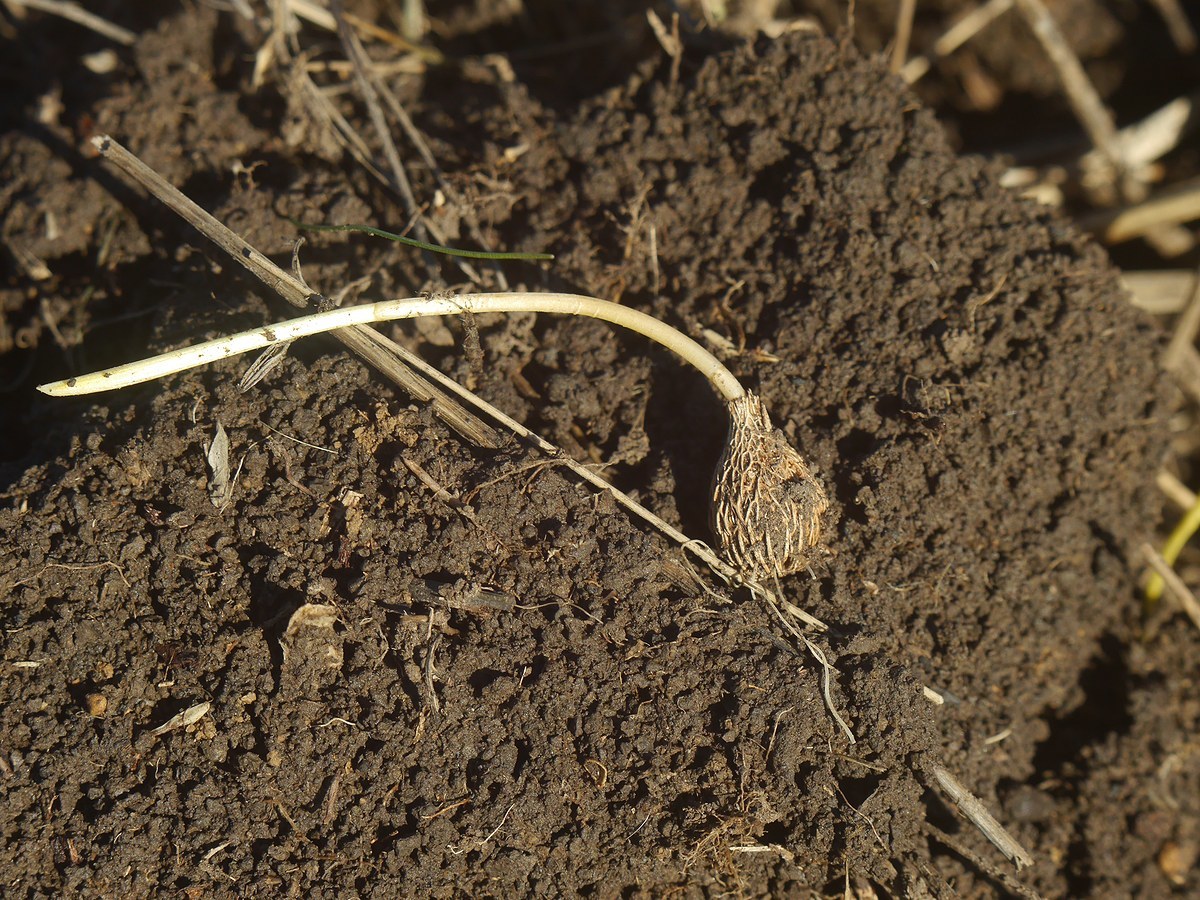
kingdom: Plantae
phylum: Tracheophyta
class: Liliopsida
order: Asparagales
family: Iridaceae
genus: Crocus
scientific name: Crocus reticulatus
